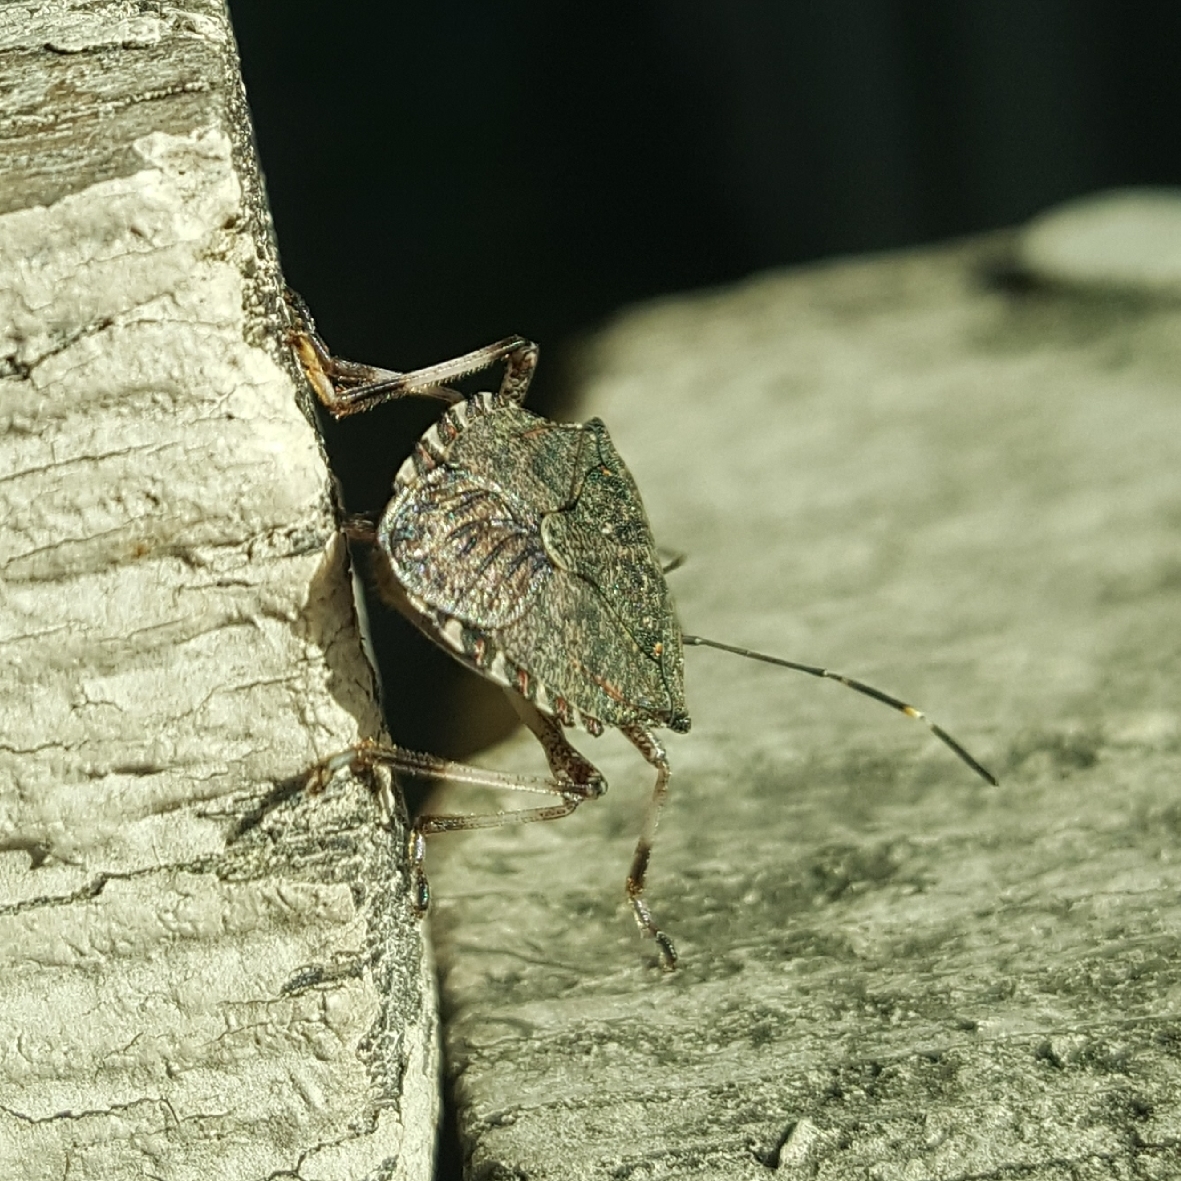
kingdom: Animalia
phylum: Arthropoda
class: Insecta
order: Hemiptera
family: Pentatomidae
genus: Halyomorpha
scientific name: Halyomorpha halys
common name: Brown marmorated stink bug
